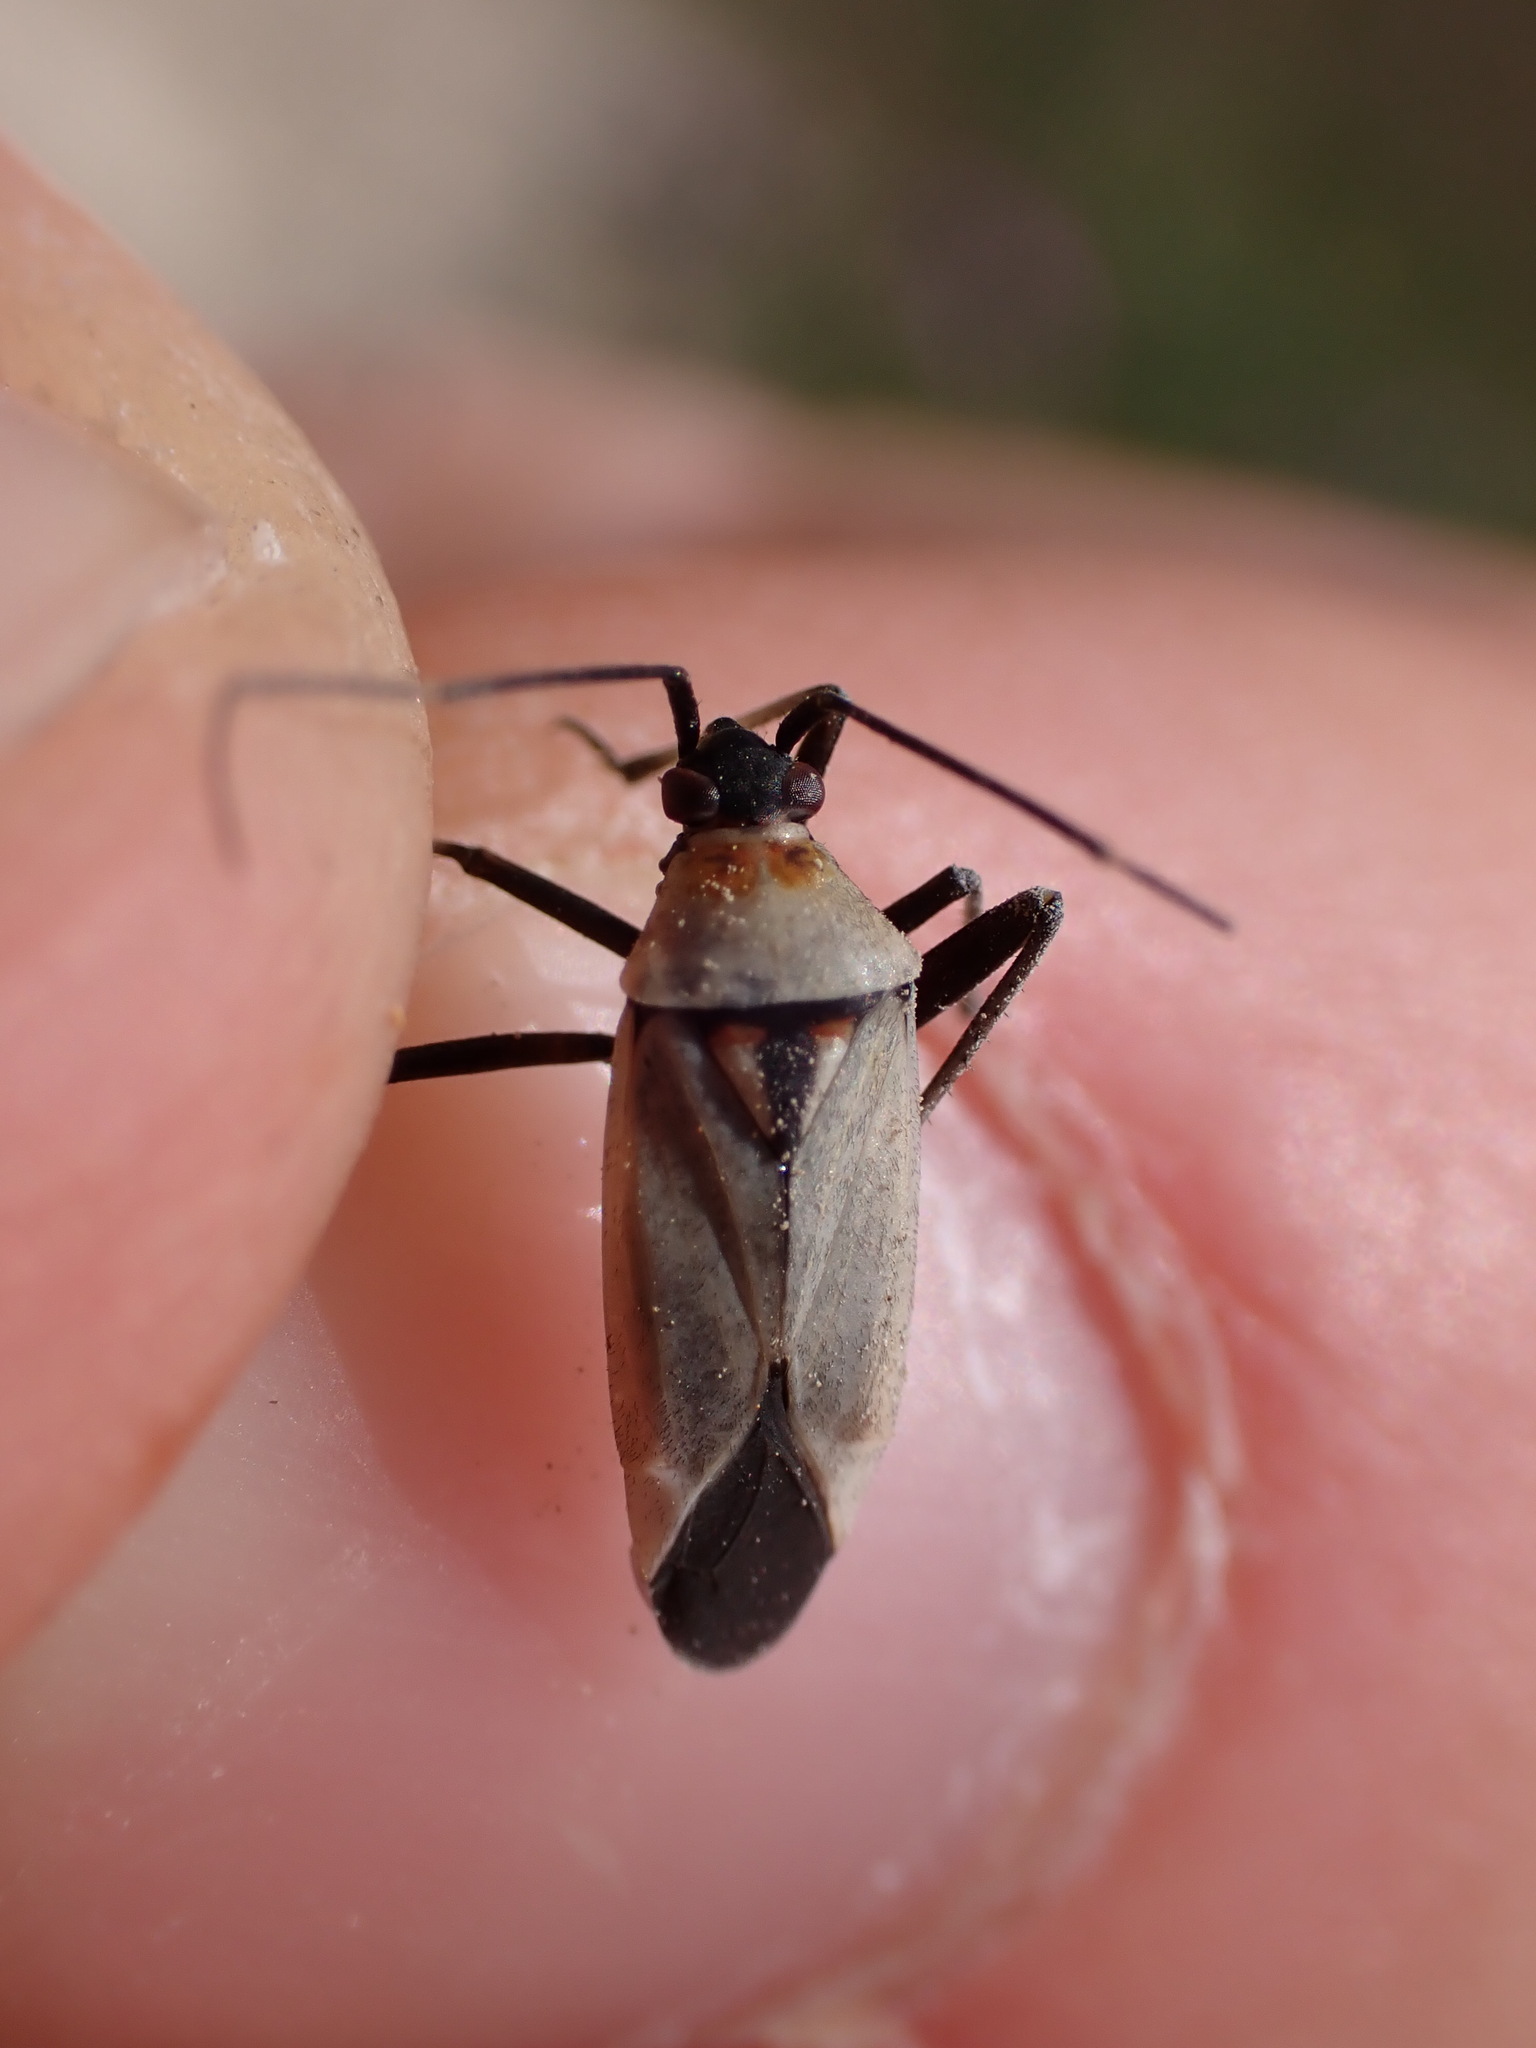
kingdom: Animalia
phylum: Arthropoda
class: Insecta
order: Hemiptera
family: Miridae
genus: Calocoris
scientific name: Calocoris nemoralis
